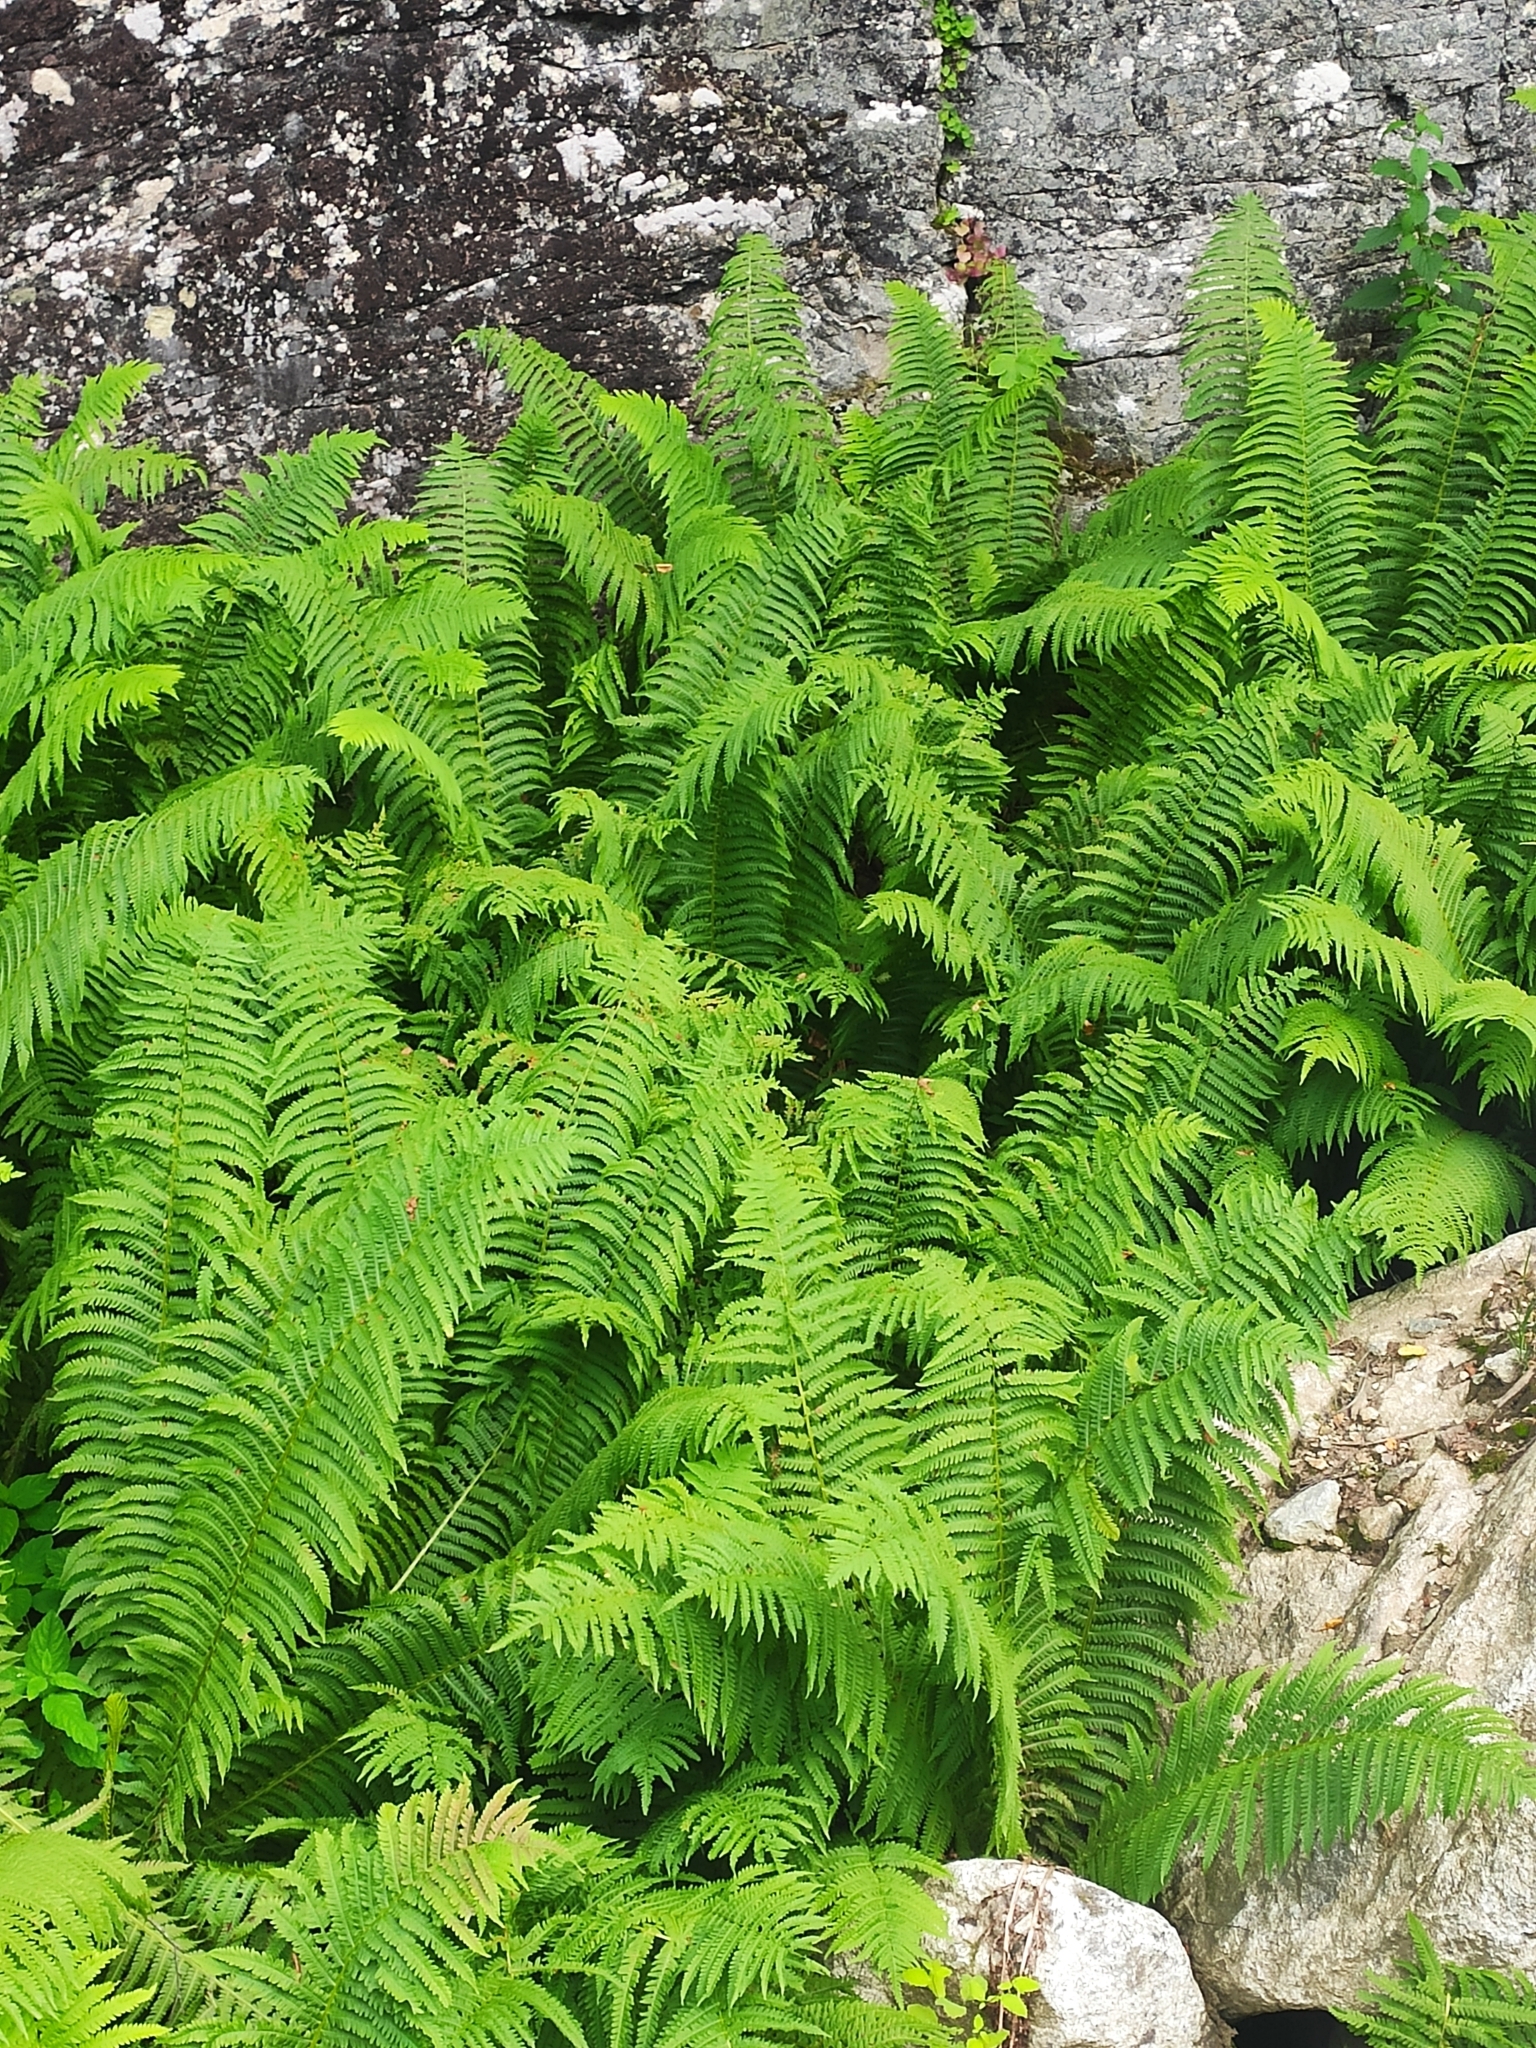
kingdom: Plantae
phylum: Tracheophyta
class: Polypodiopsida
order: Polypodiales
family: Onocleaceae
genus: Matteuccia
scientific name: Matteuccia struthiopteris
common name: Ostrich fern
